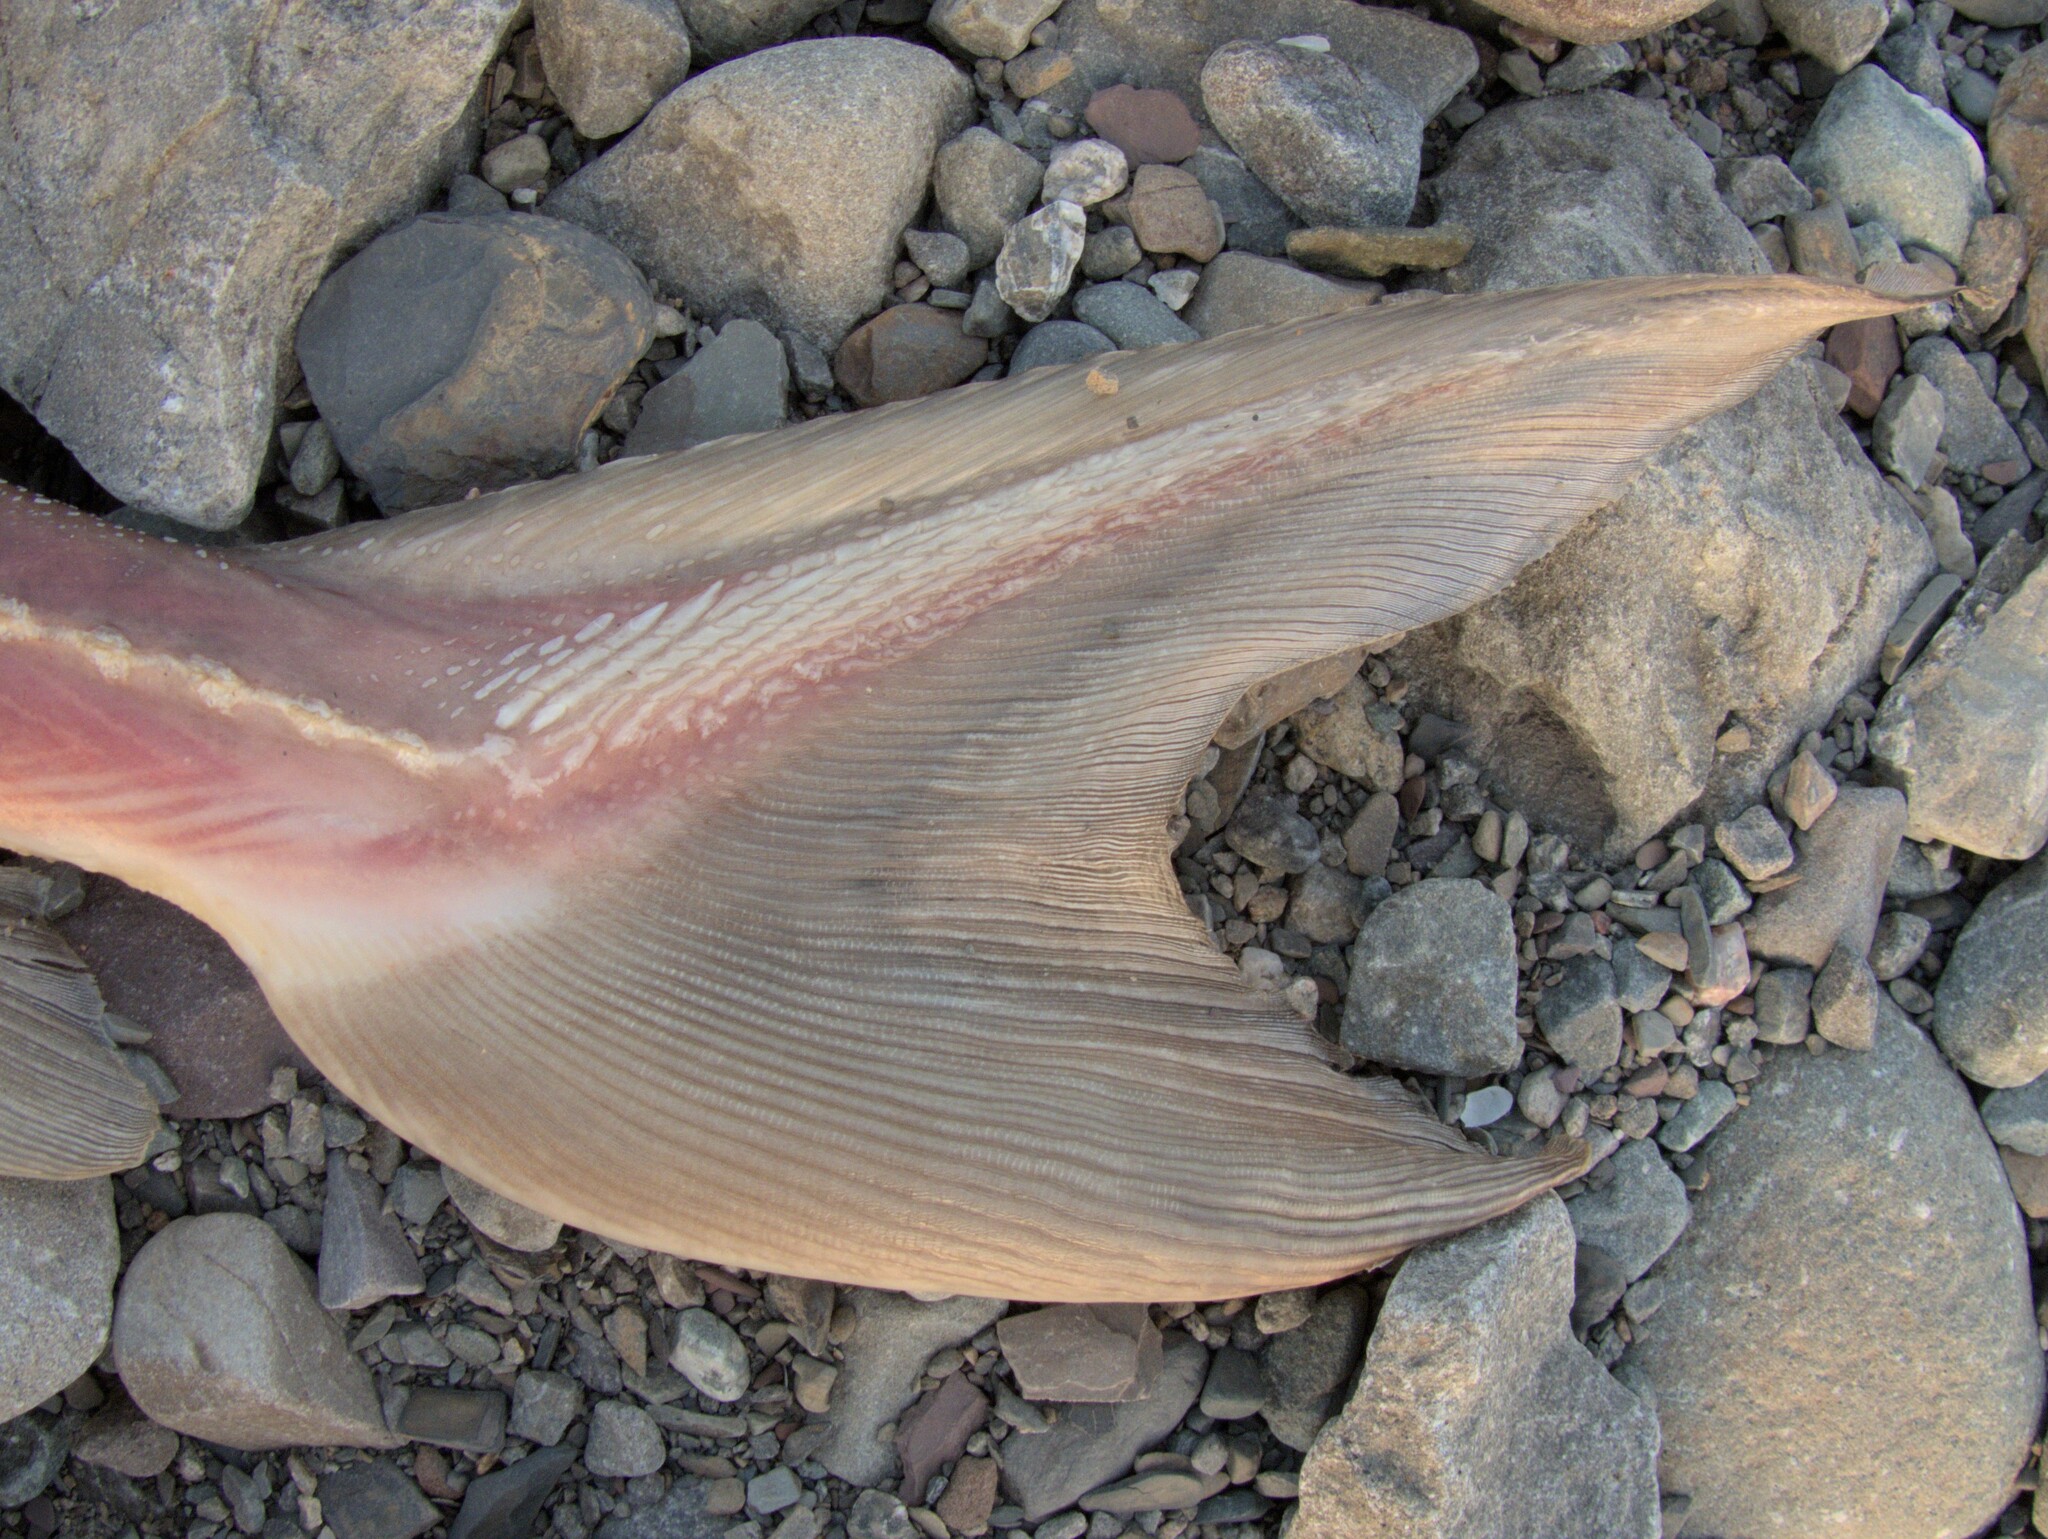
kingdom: Animalia
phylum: Chordata
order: Acipenseriformes
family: Acipenseridae
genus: Acipenser
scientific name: Acipenser fulvescens
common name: Lake sturgeon
